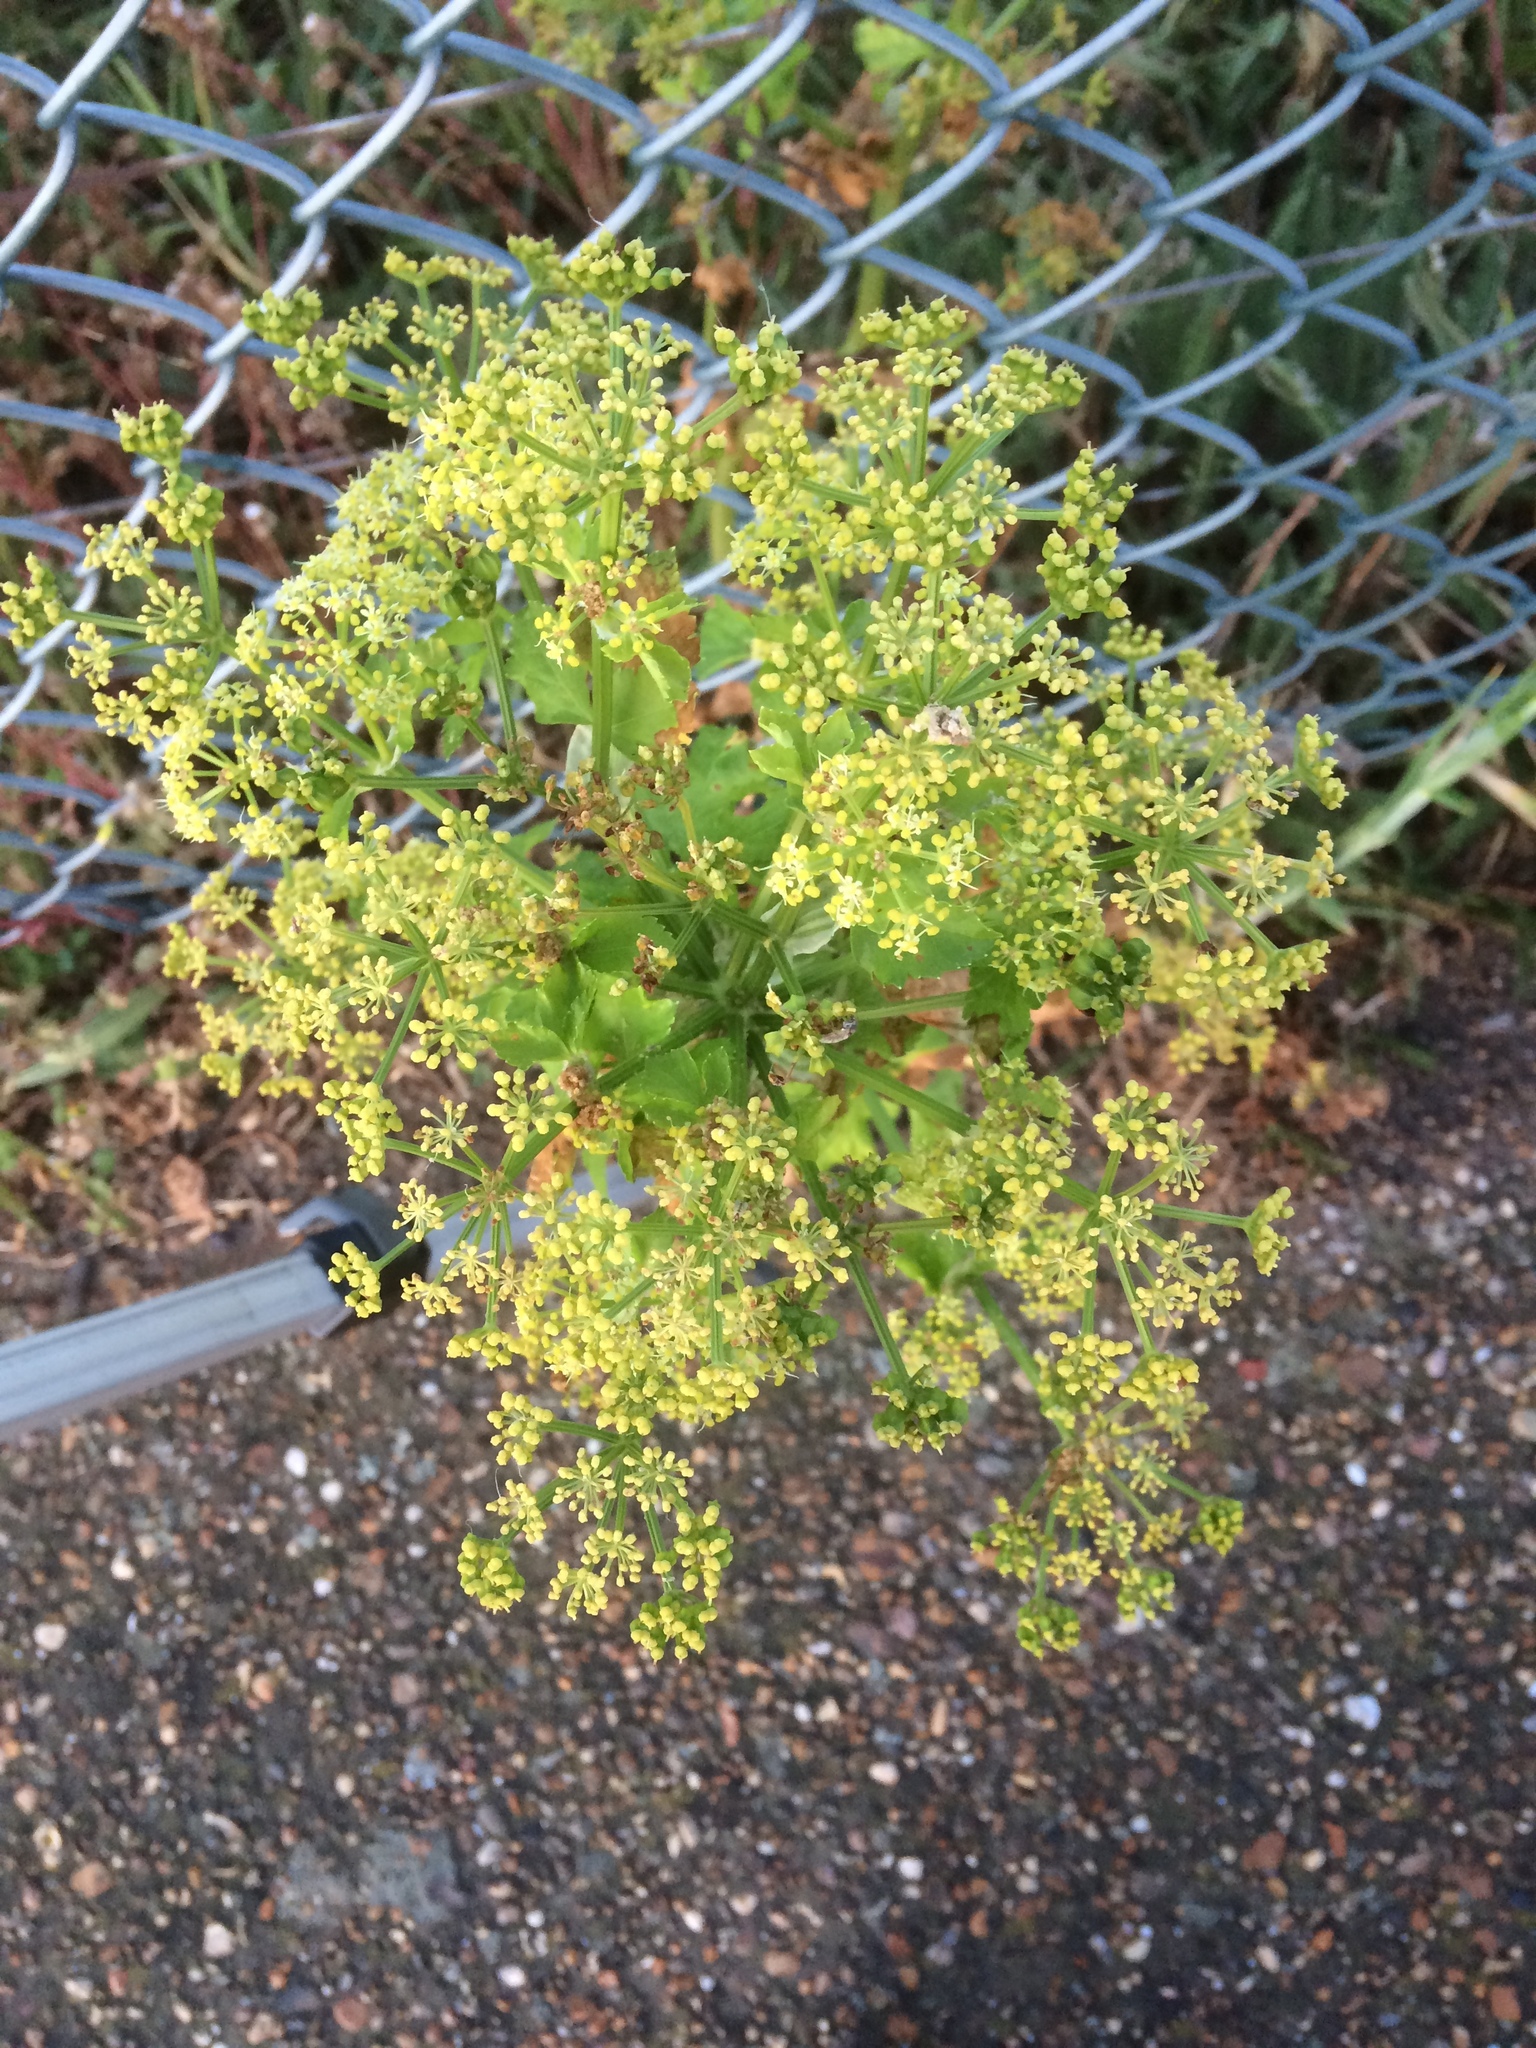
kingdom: Plantae
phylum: Tracheophyta
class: Magnoliopsida
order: Apiales
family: Apiaceae
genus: Smyrnium
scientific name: Smyrnium olusatrum
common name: Alexanders
